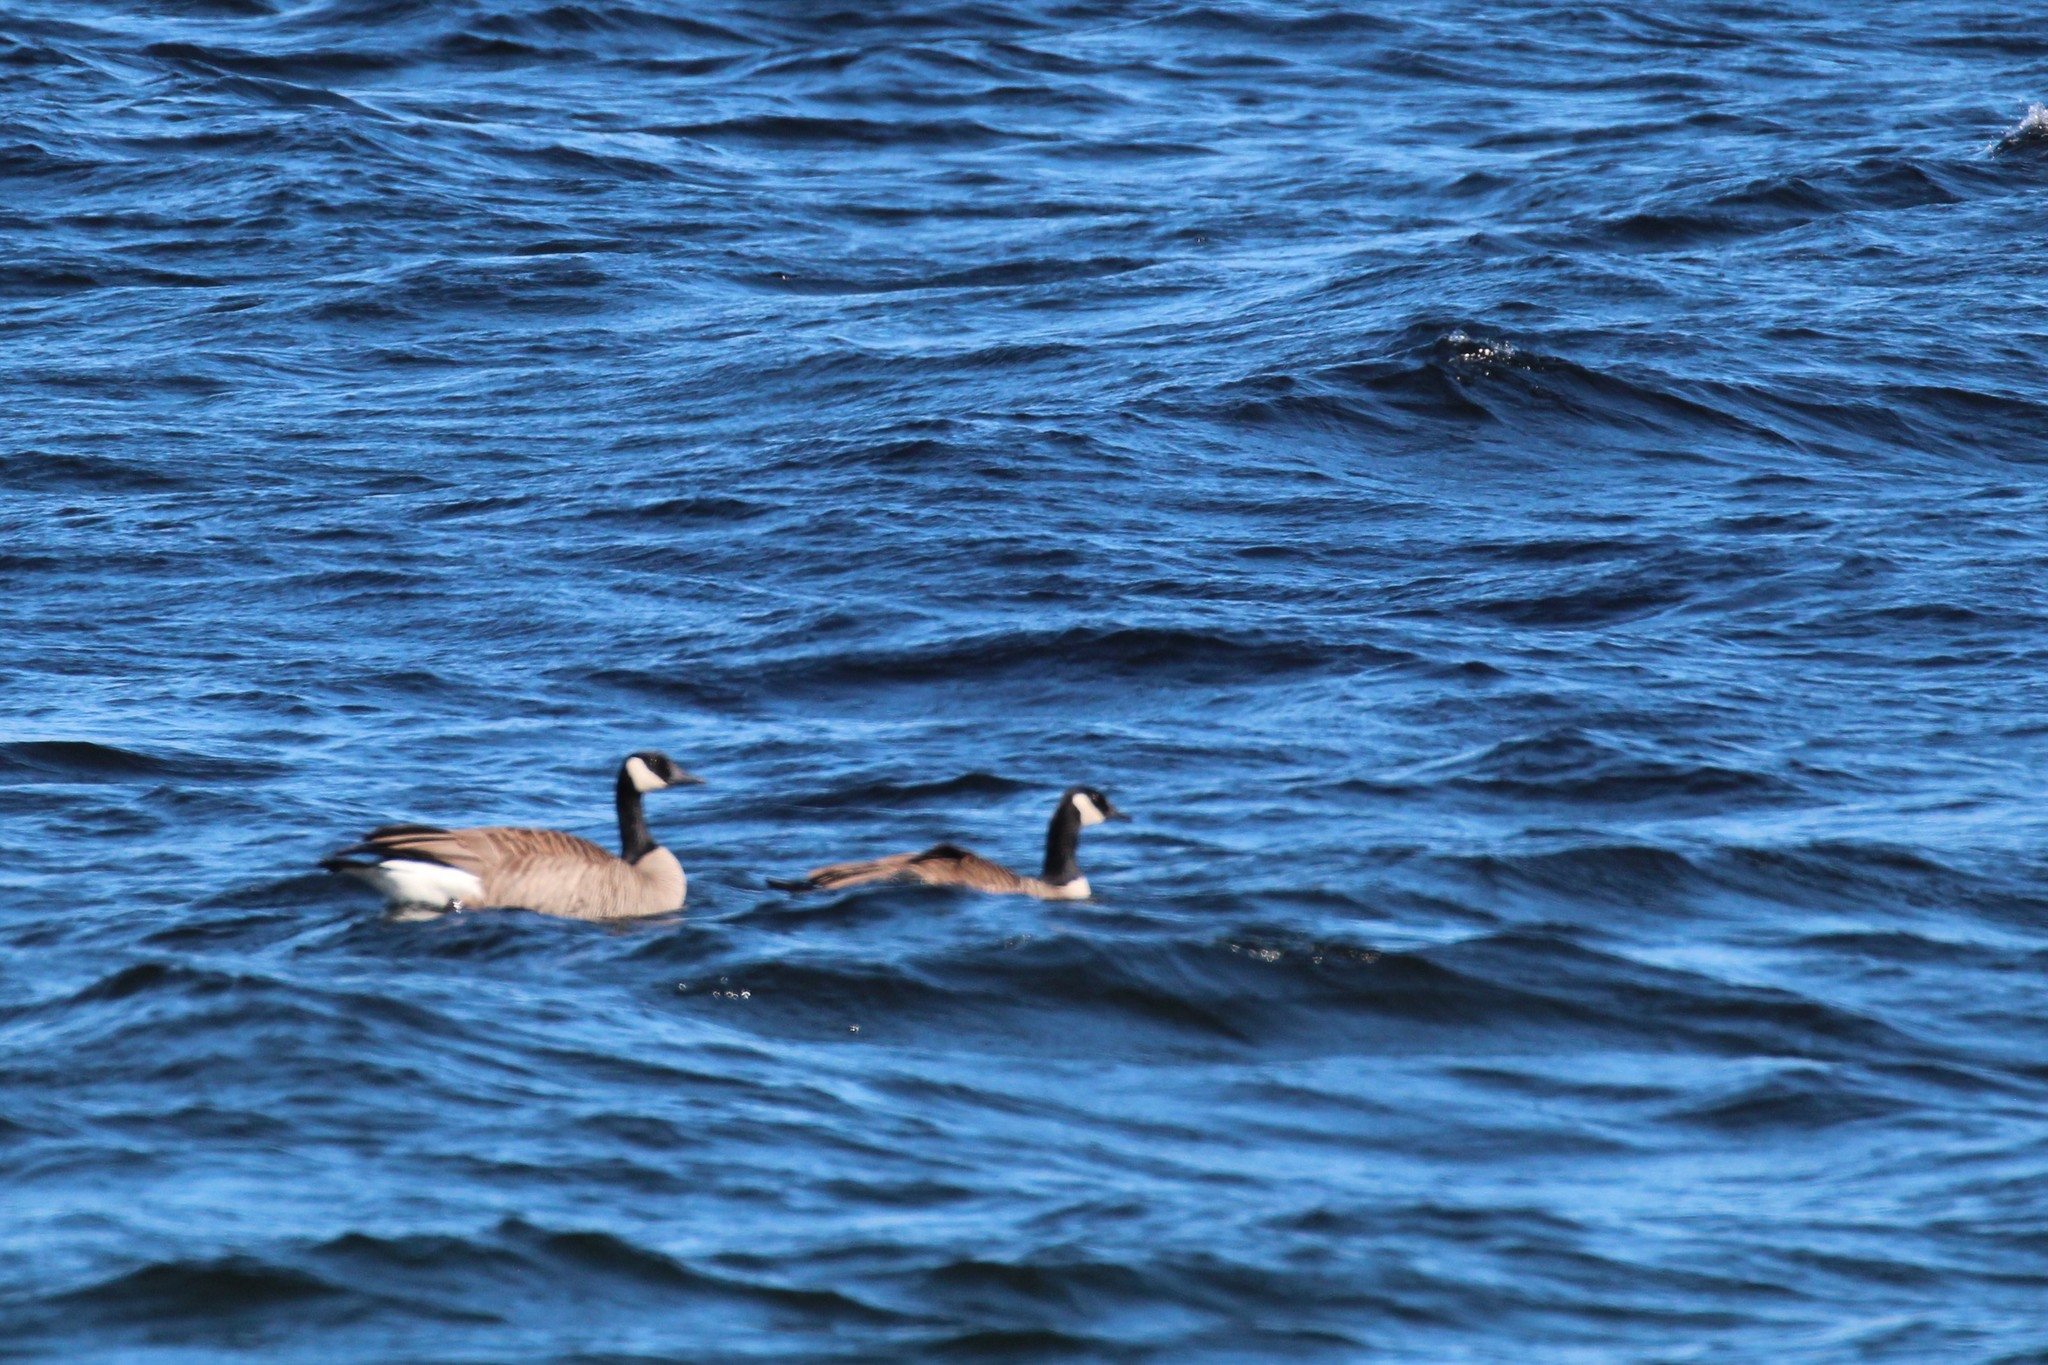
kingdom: Animalia
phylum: Chordata
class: Aves
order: Anseriformes
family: Anatidae
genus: Branta
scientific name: Branta canadensis
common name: Canada goose
